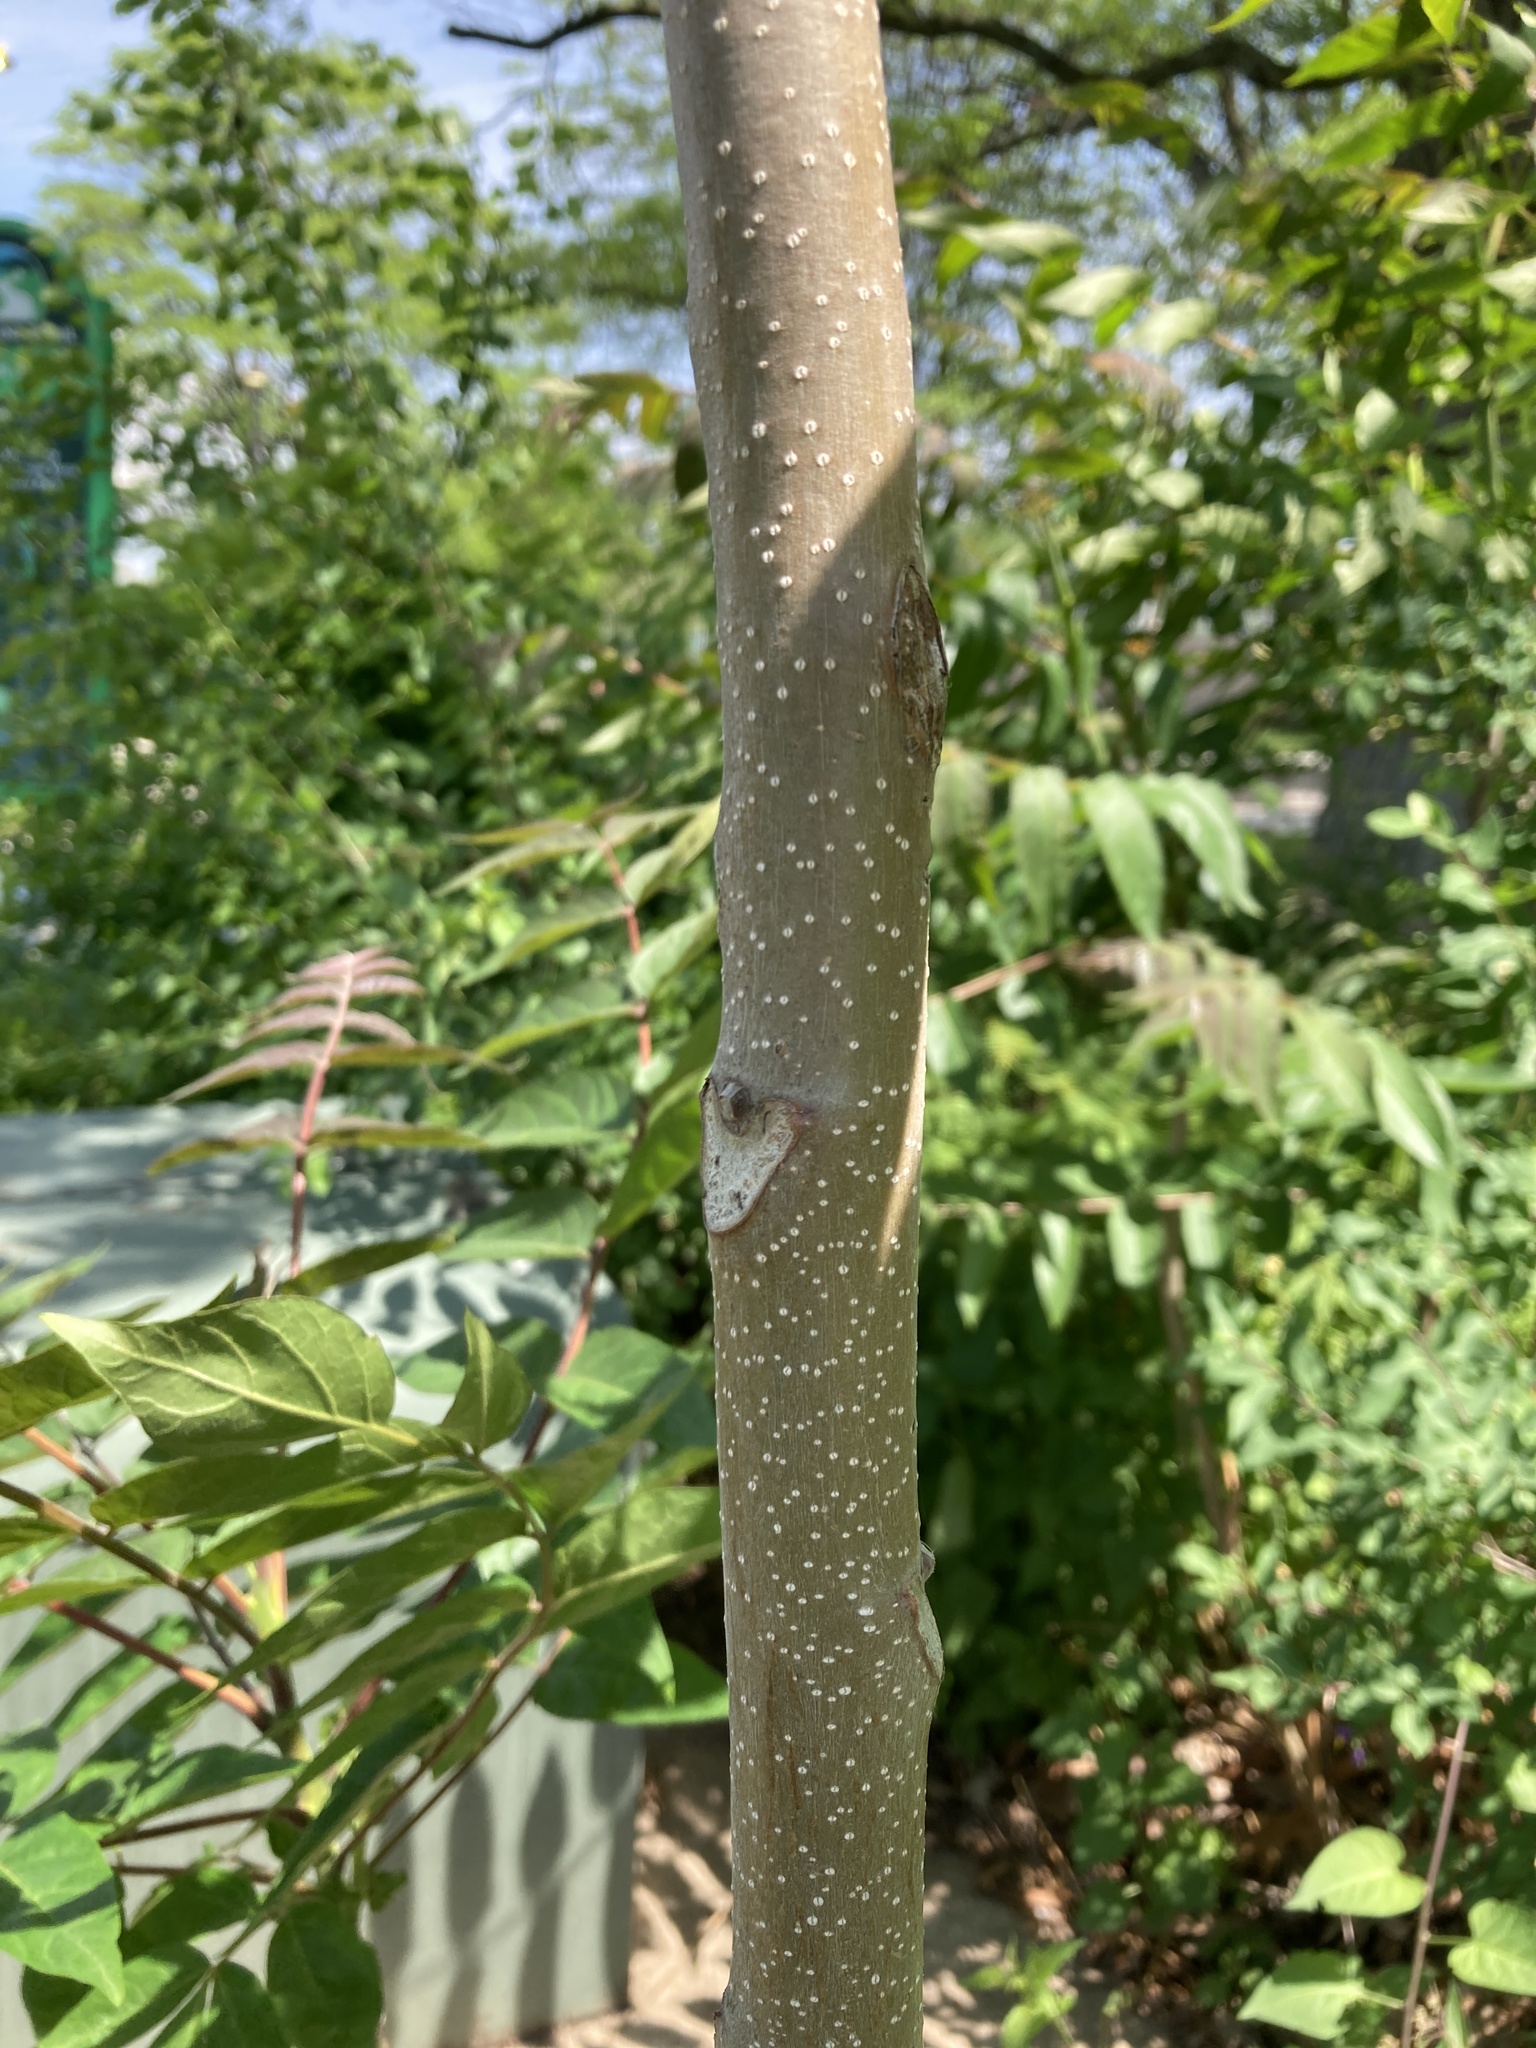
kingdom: Plantae
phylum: Tracheophyta
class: Magnoliopsida
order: Sapindales
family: Simaroubaceae
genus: Ailanthus
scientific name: Ailanthus altissima
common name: Tree-of-heaven
